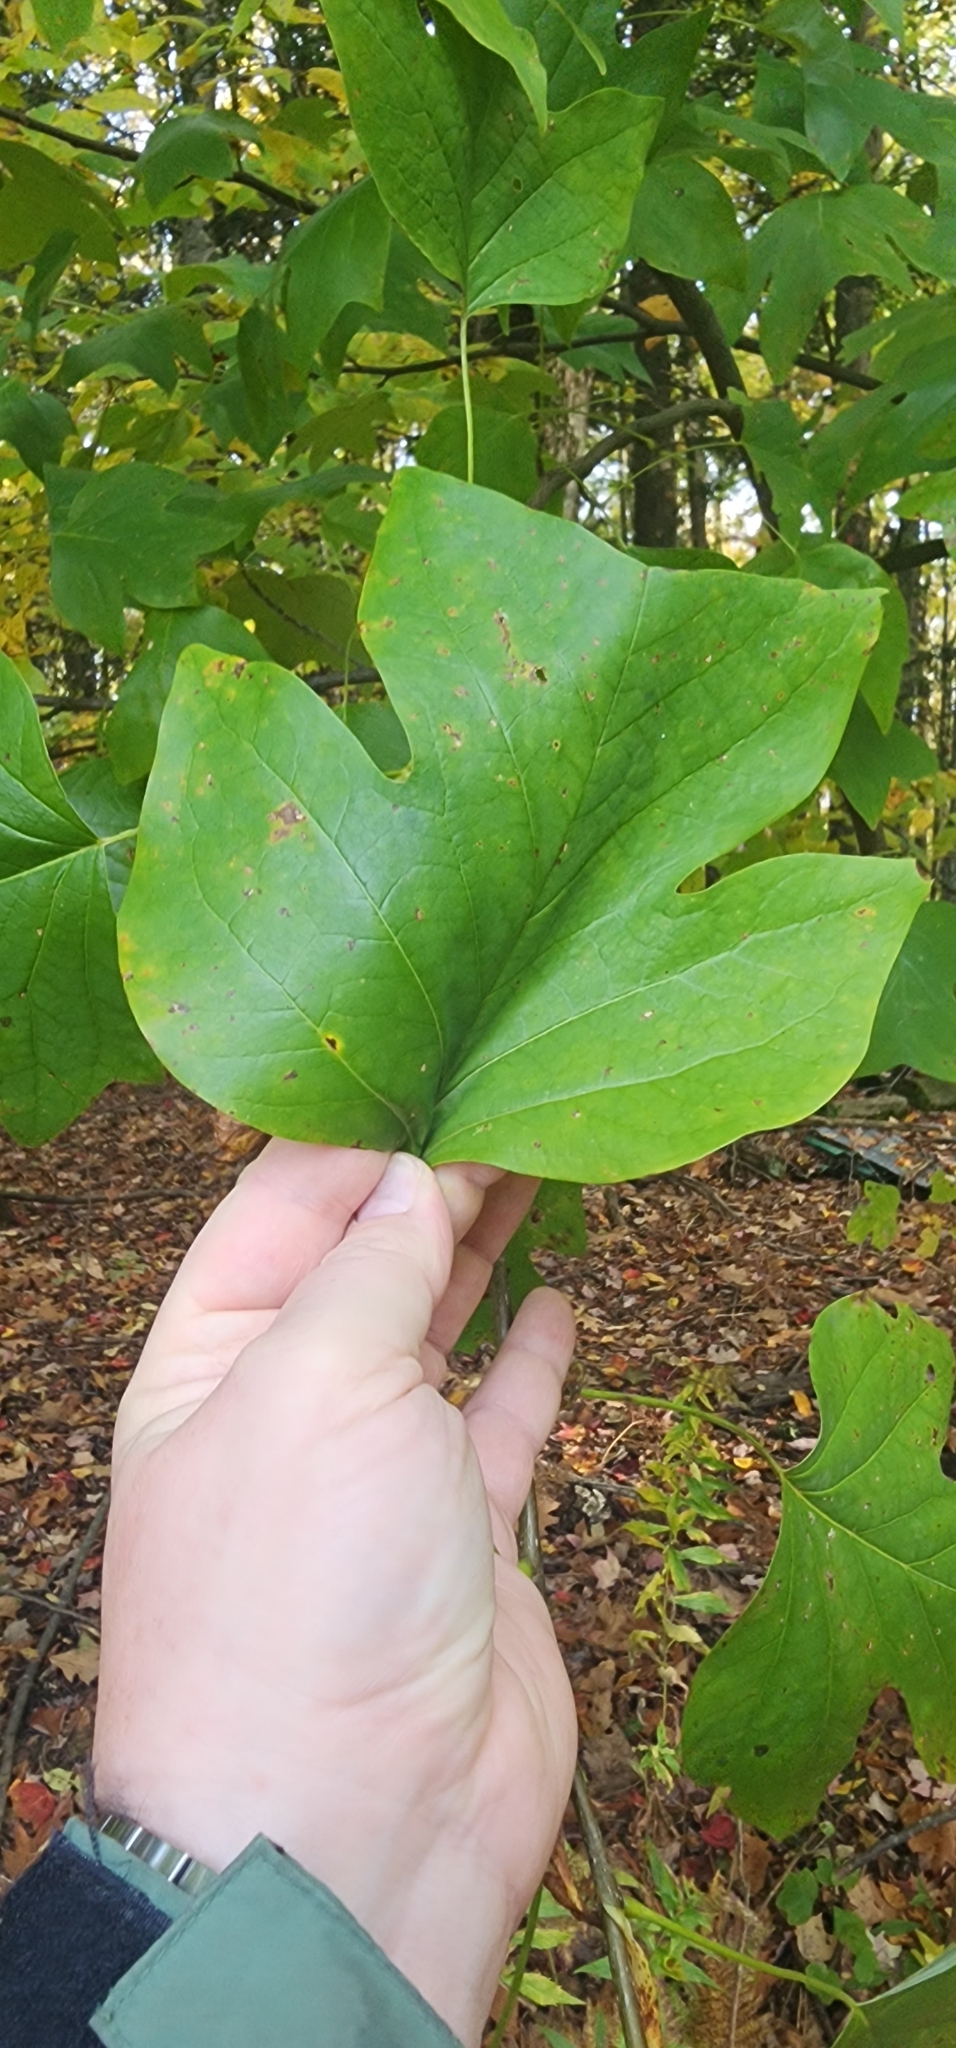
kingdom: Plantae
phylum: Tracheophyta
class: Magnoliopsida
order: Magnoliales
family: Magnoliaceae
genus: Liriodendron
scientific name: Liriodendron tulipifera
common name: Tulip tree
